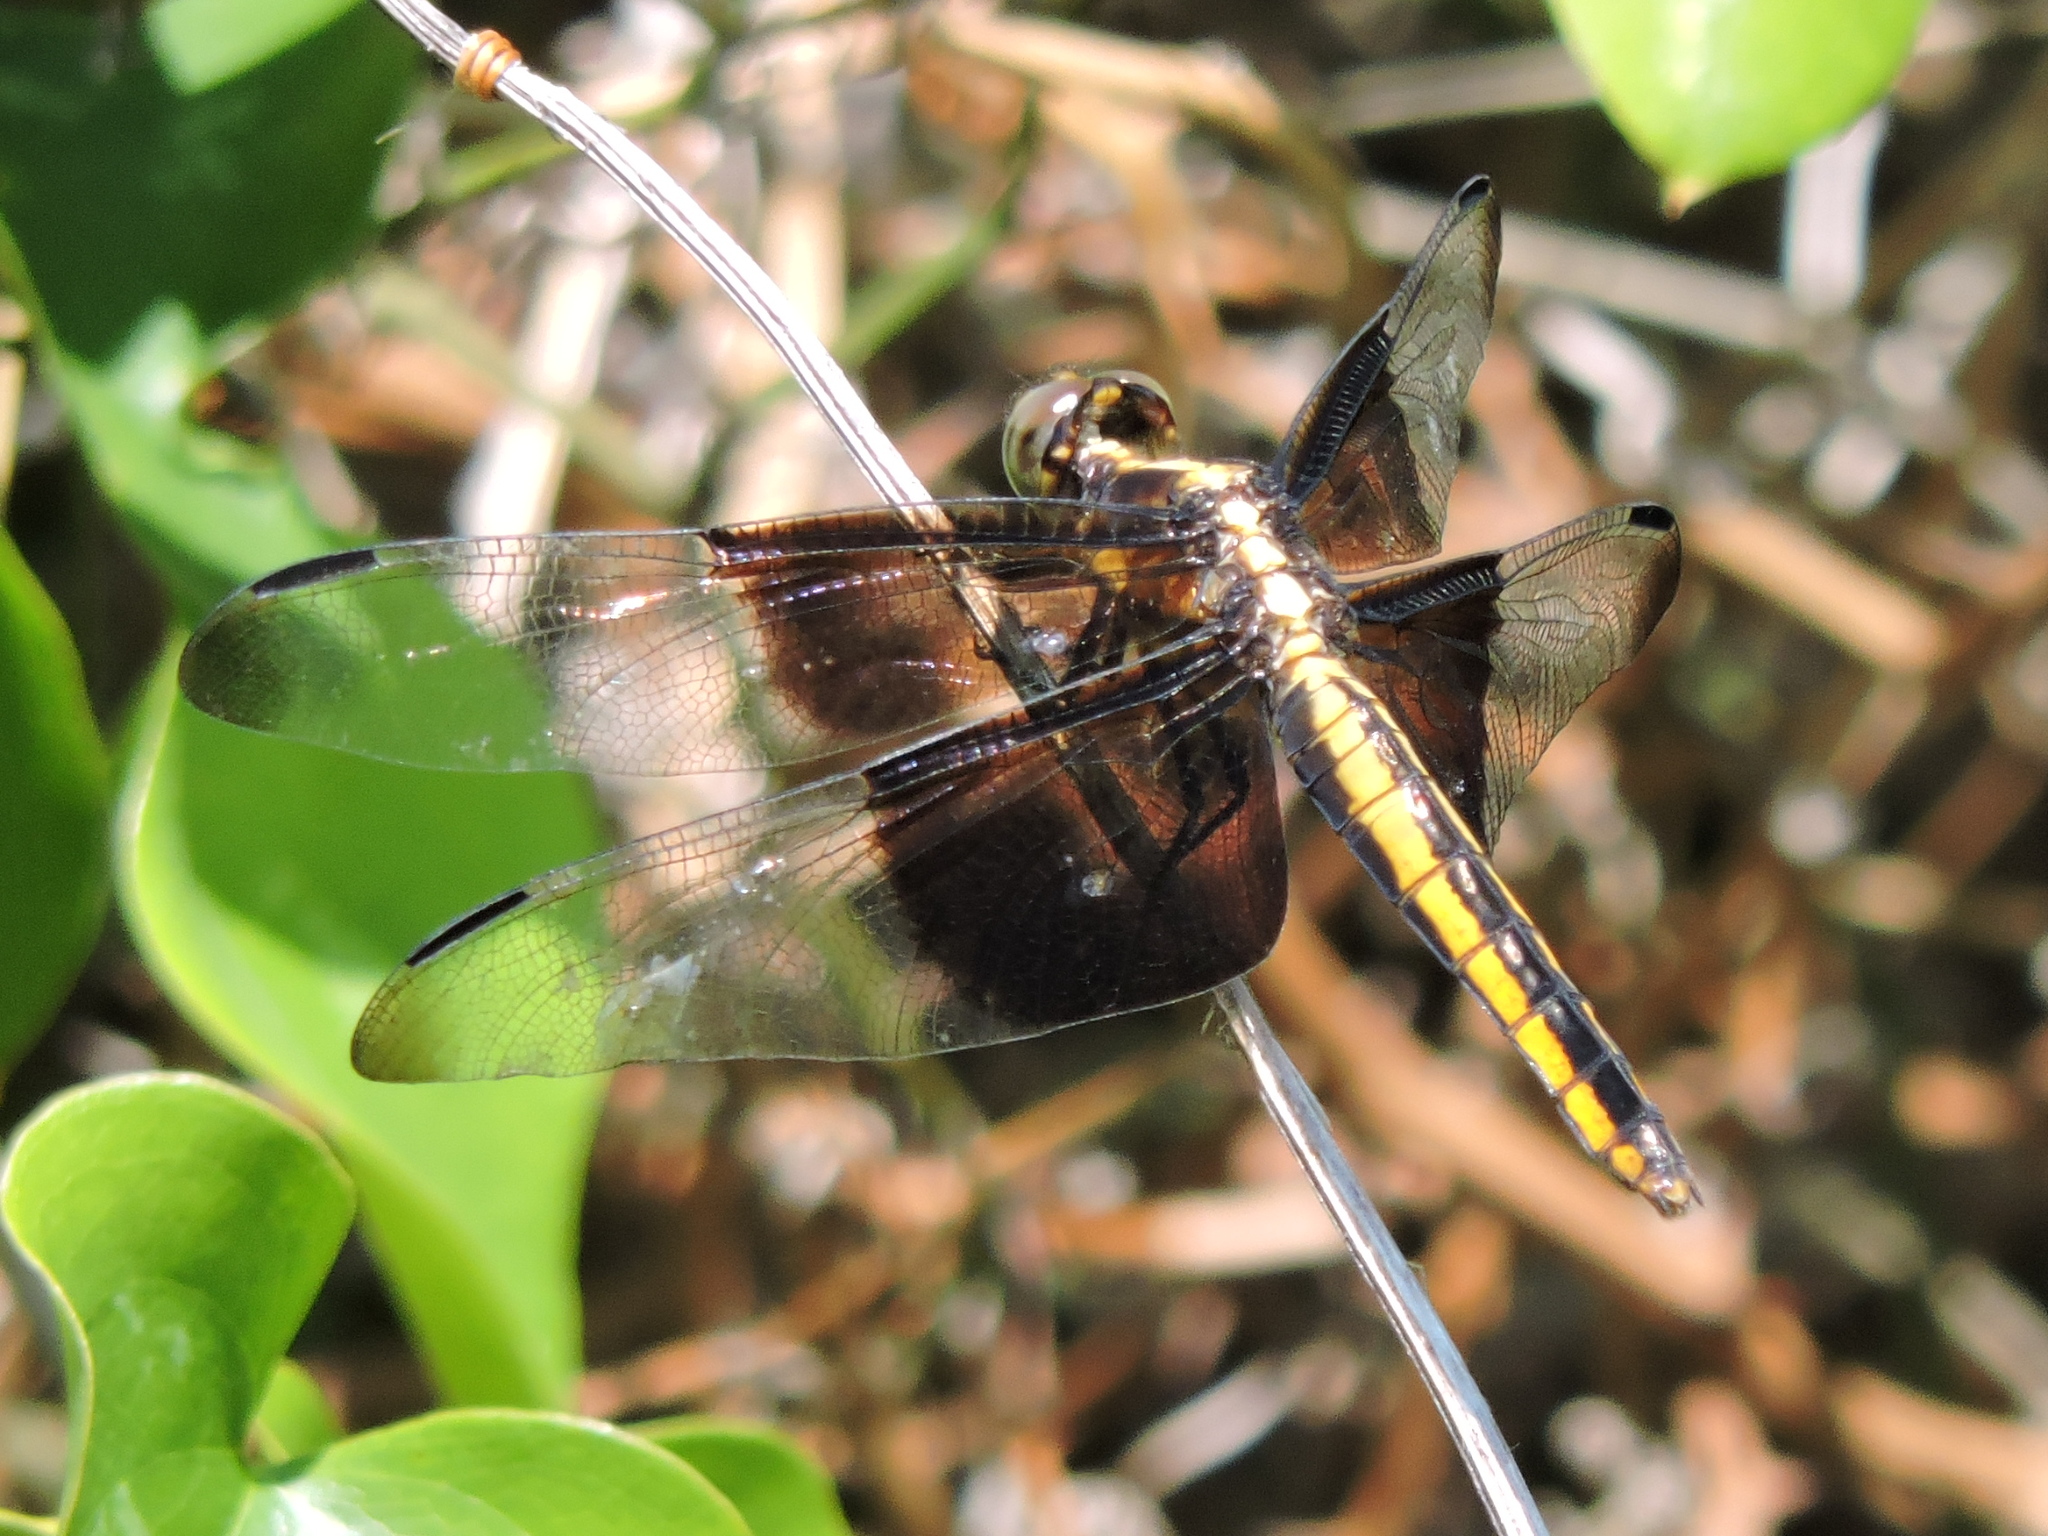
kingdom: Animalia
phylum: Arthropoda
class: Insecta
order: Odonata
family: Libellulidae
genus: Libellula
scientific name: Libellula luctuosa
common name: Widow skimmer
